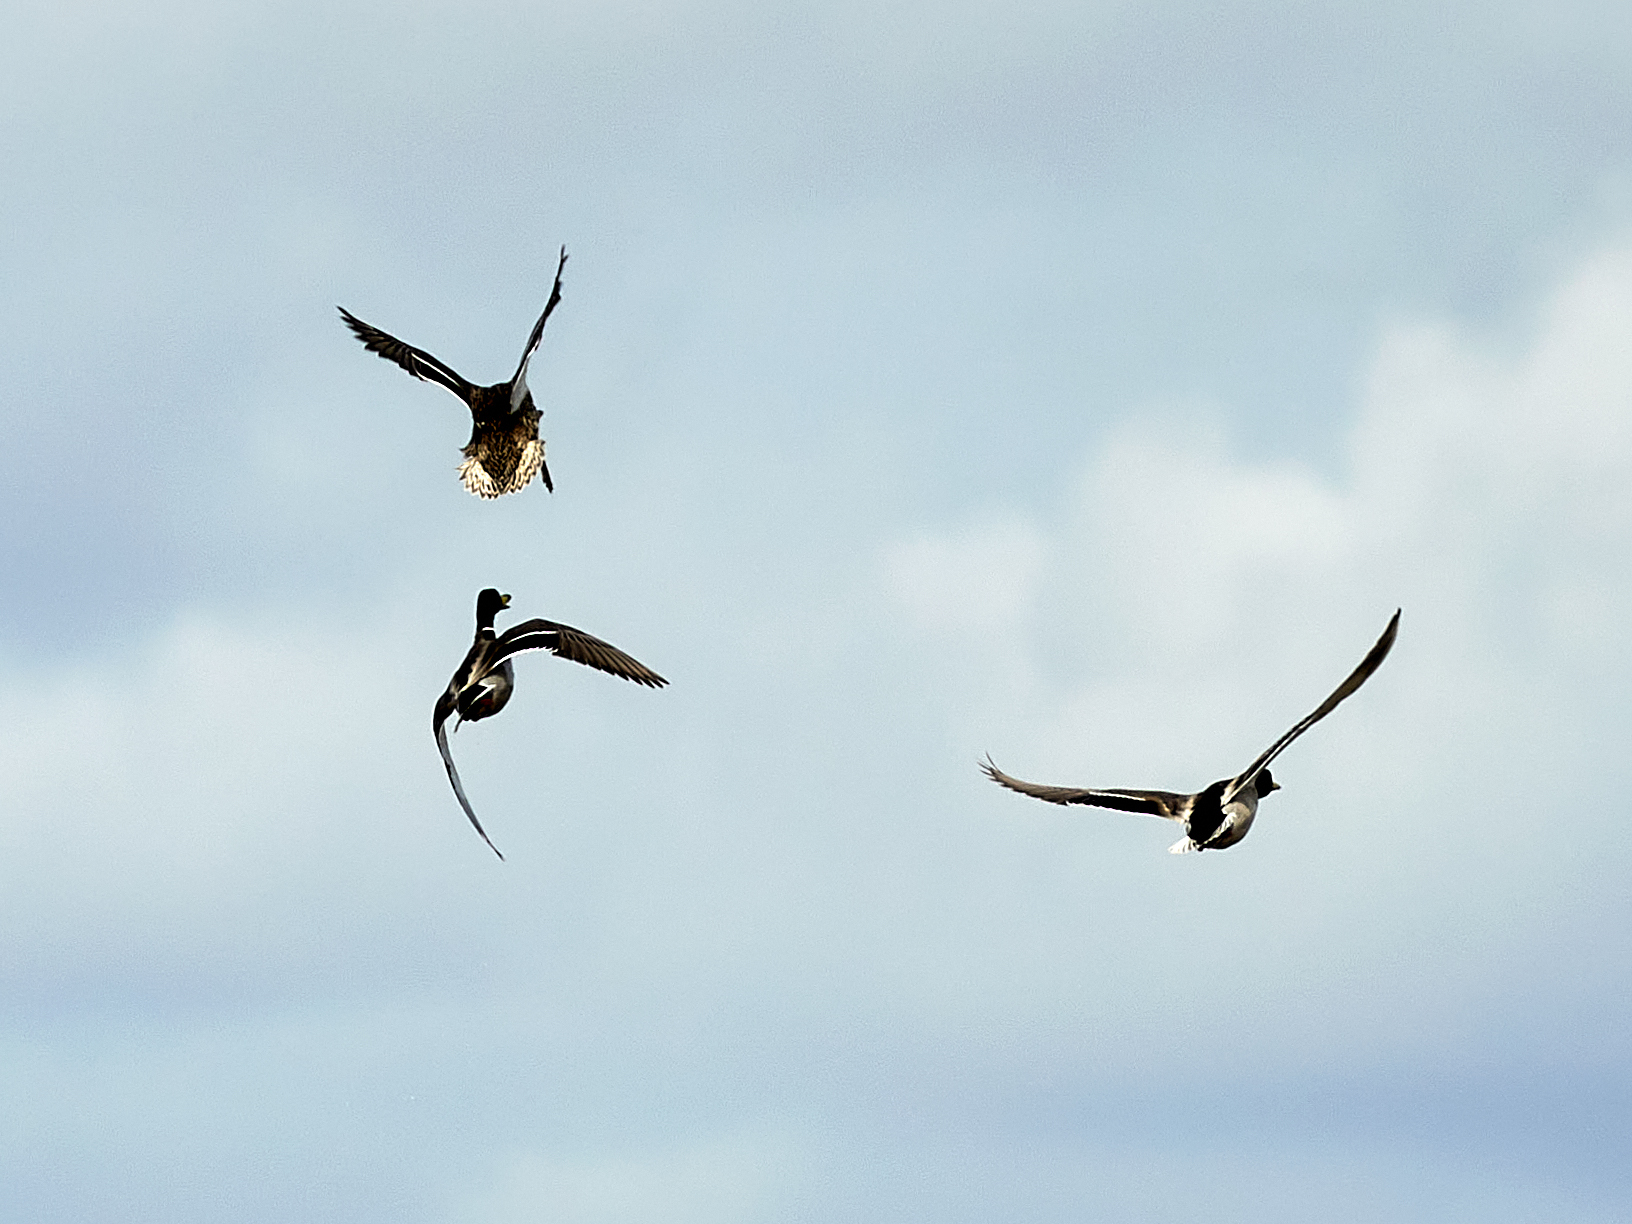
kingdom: Animalia
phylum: Chordata
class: Aves
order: Anseriformes
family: Anatidae
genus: Anas
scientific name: Anas platyrhynchos
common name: Mallard
